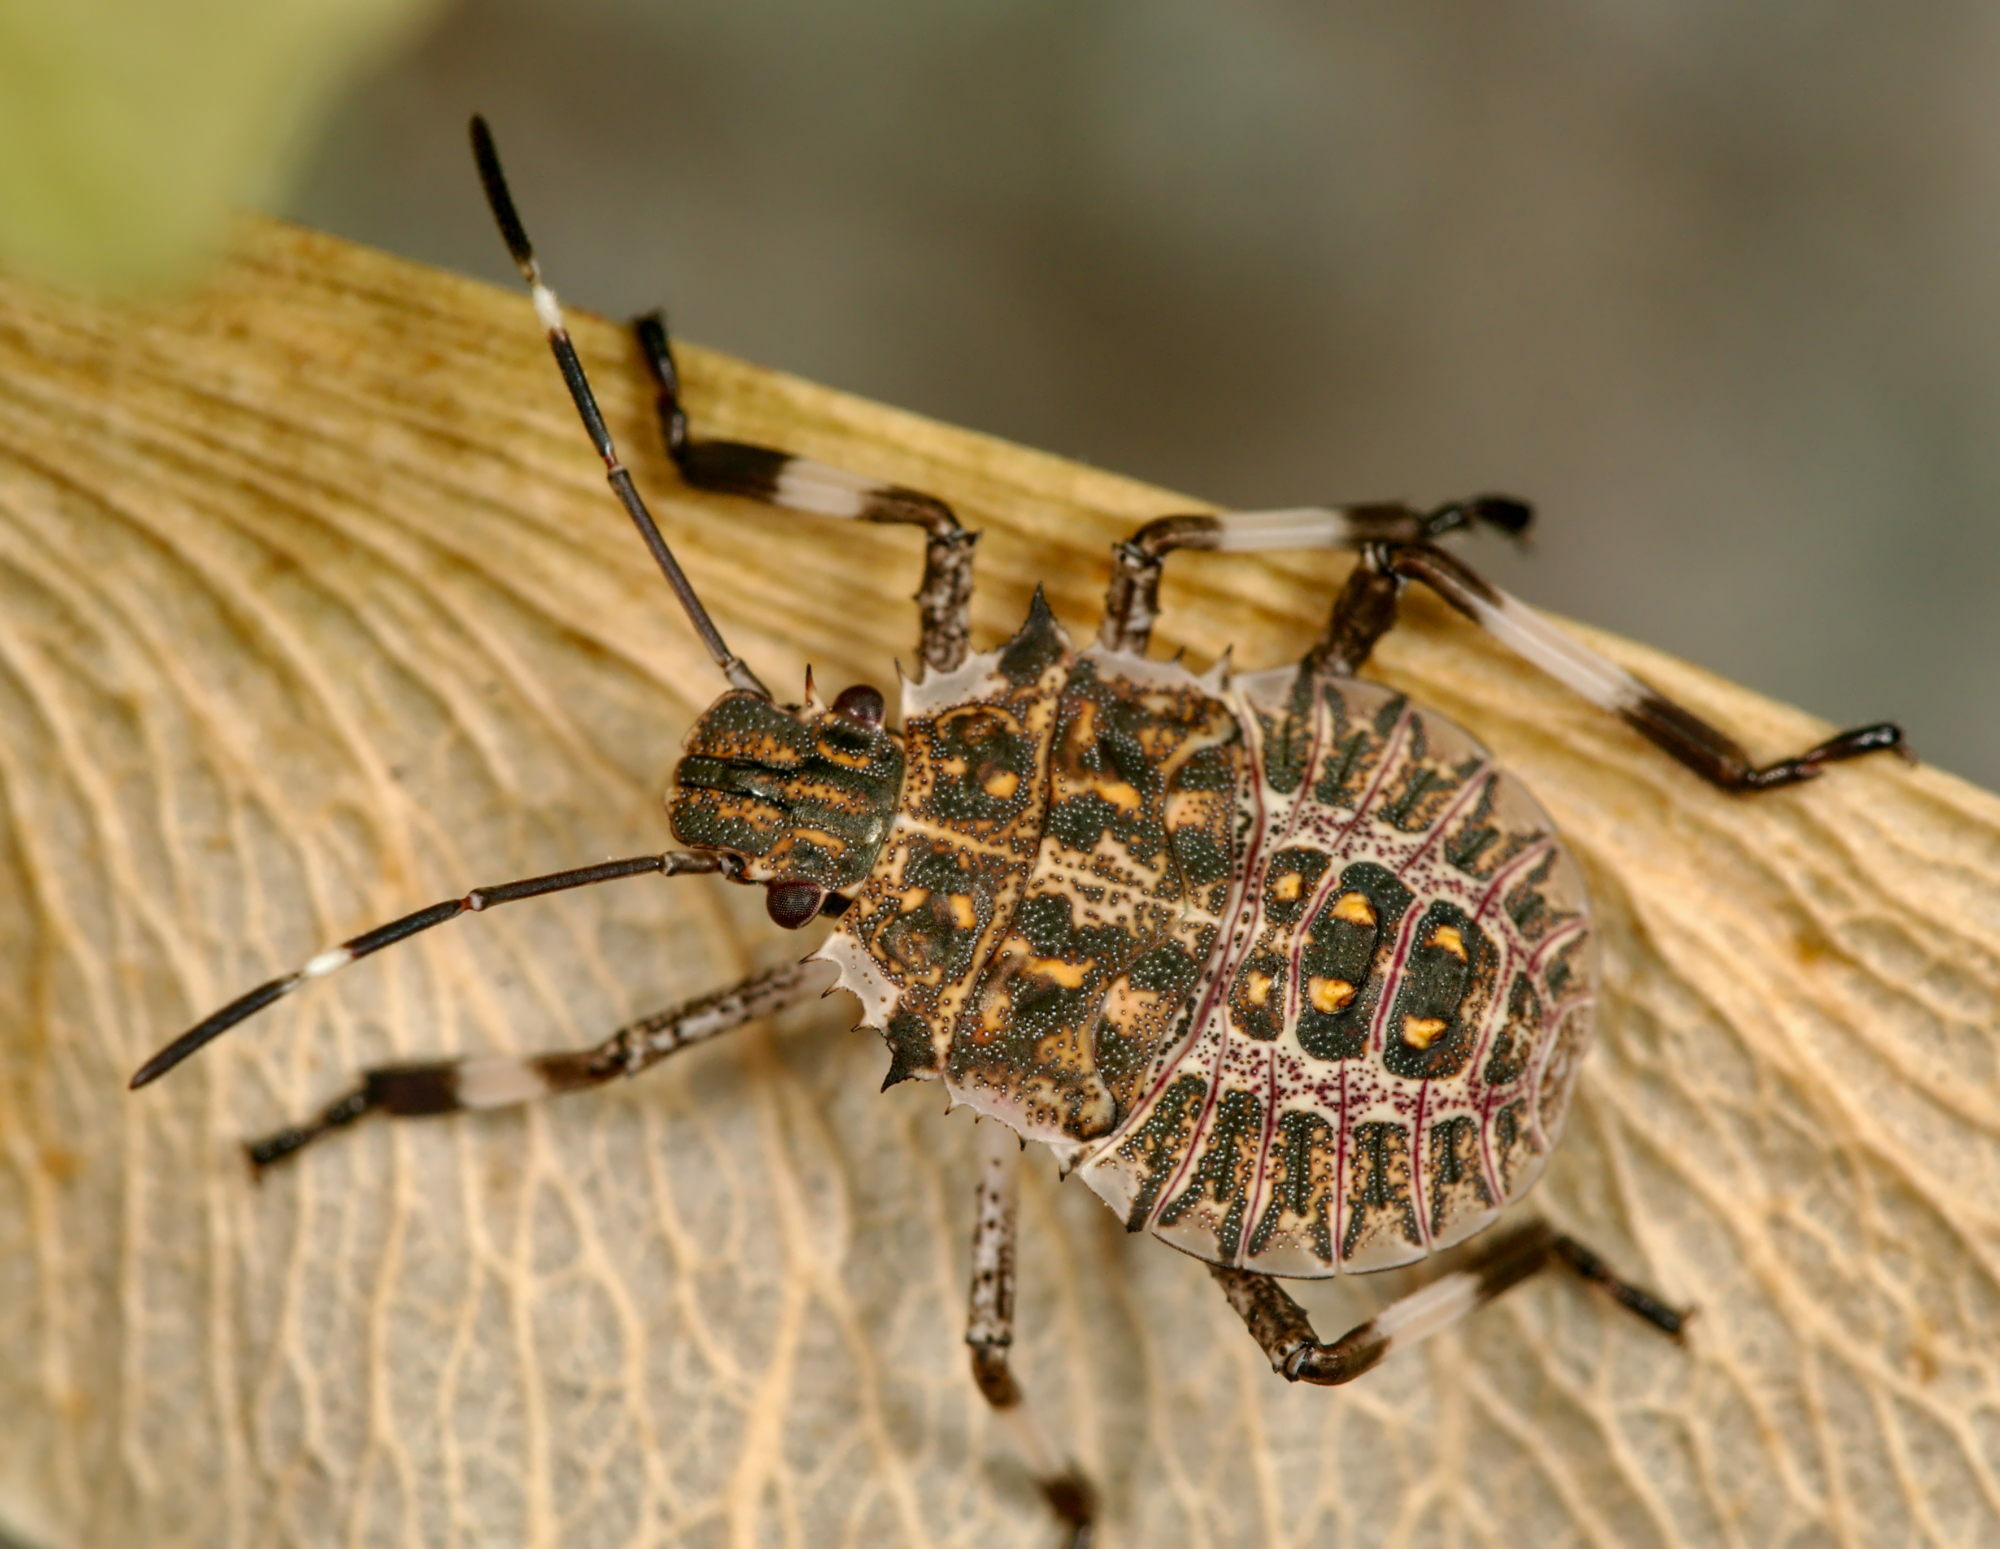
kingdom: Animalia
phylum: Arthropoda
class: Insecta
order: Hemiptera
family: Pentatomidae
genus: Halyomorpha
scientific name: Halyomorpha halys
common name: Brown marmorated stink bug
